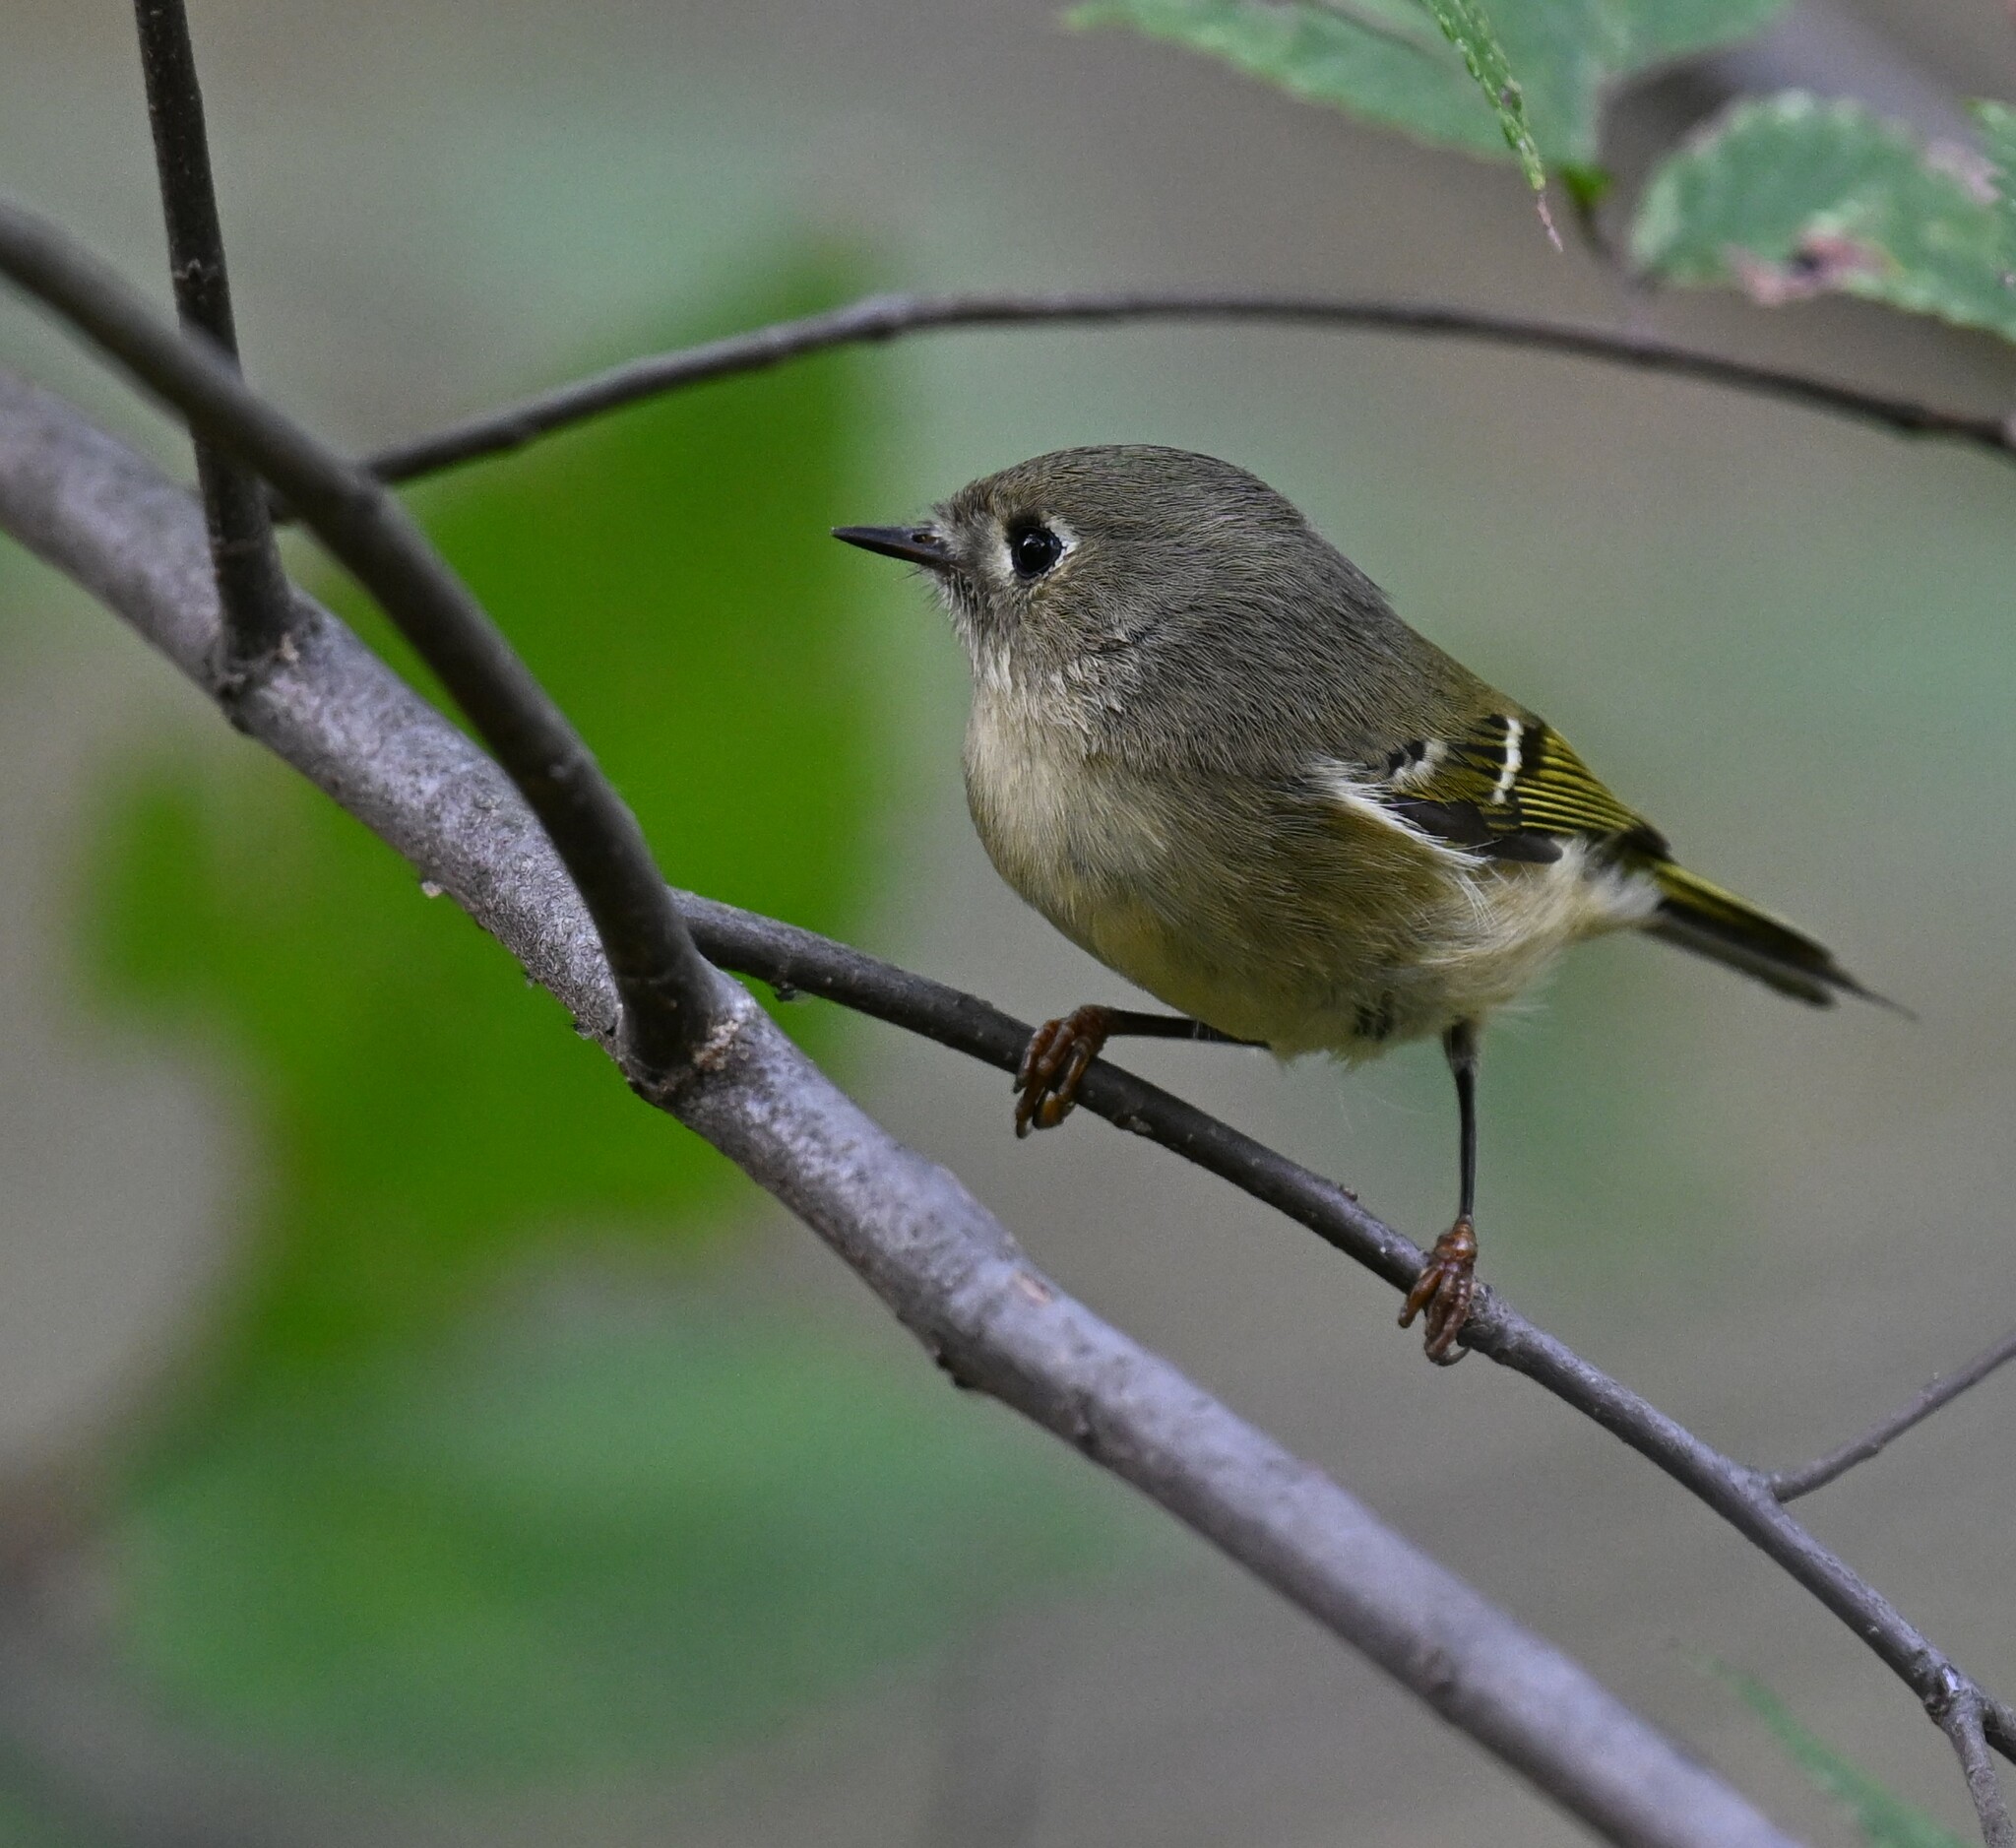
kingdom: Animalia
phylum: Chordata
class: Aves
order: Passeriformes
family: Regulidae
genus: Regulus
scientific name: Regulus calendula
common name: Ruby-crowned kinglet
